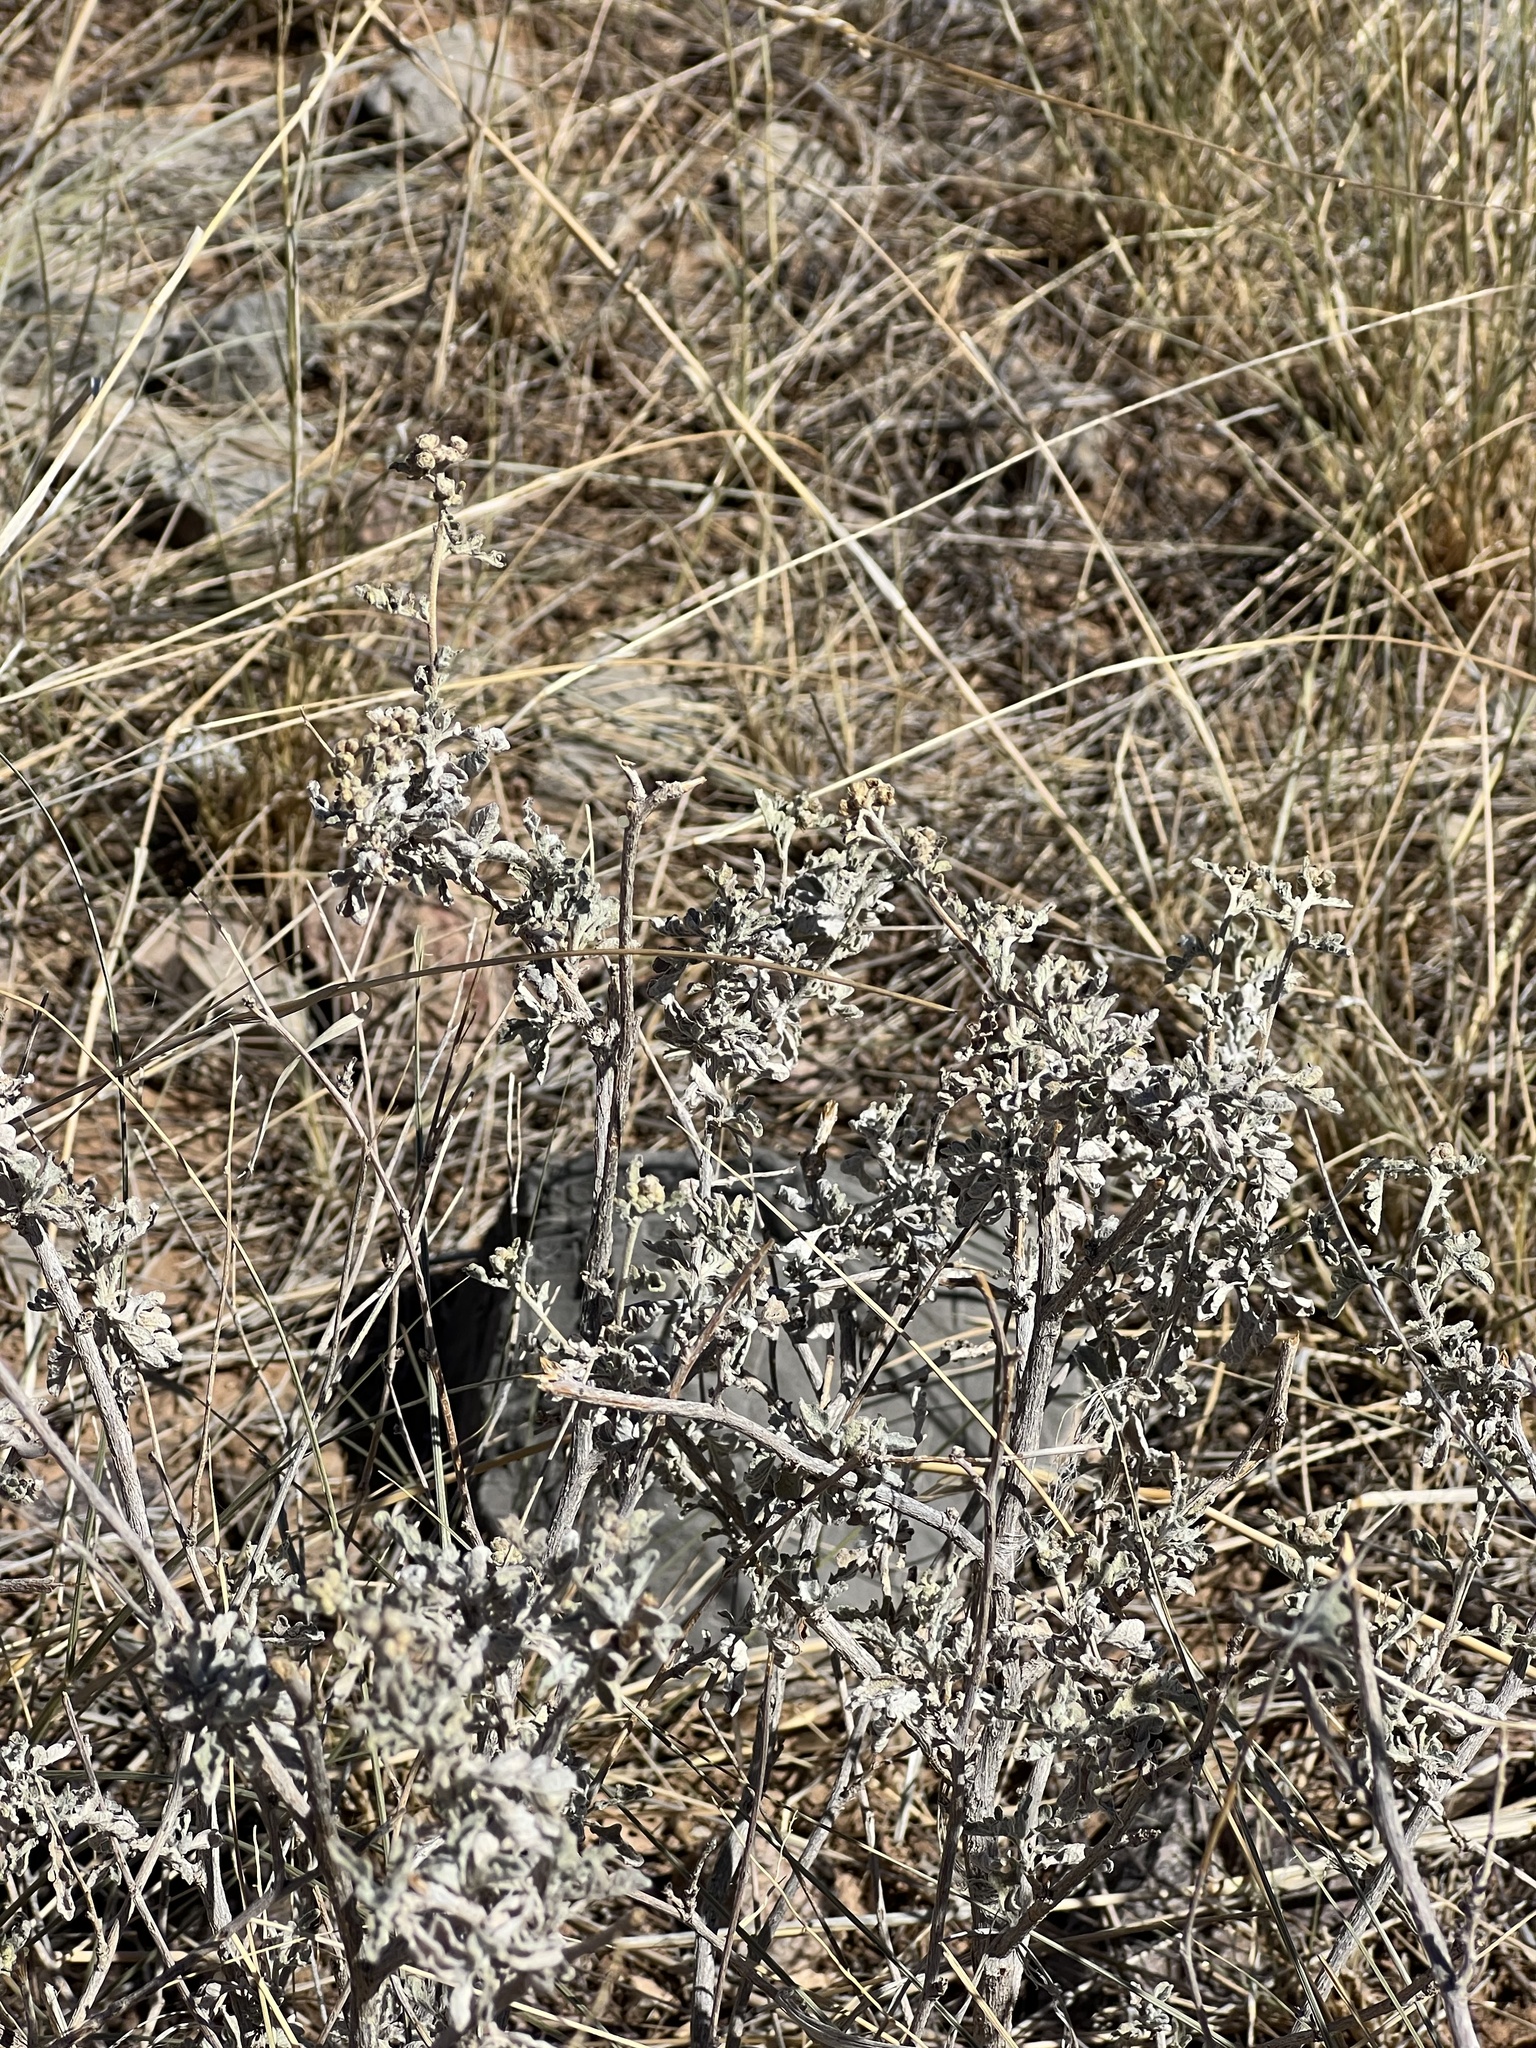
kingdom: Plantae
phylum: Tracheophyta
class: Magnoliopsida
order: Asterales
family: Asteraceae
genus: Parthenium
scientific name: Parthenium incanum
